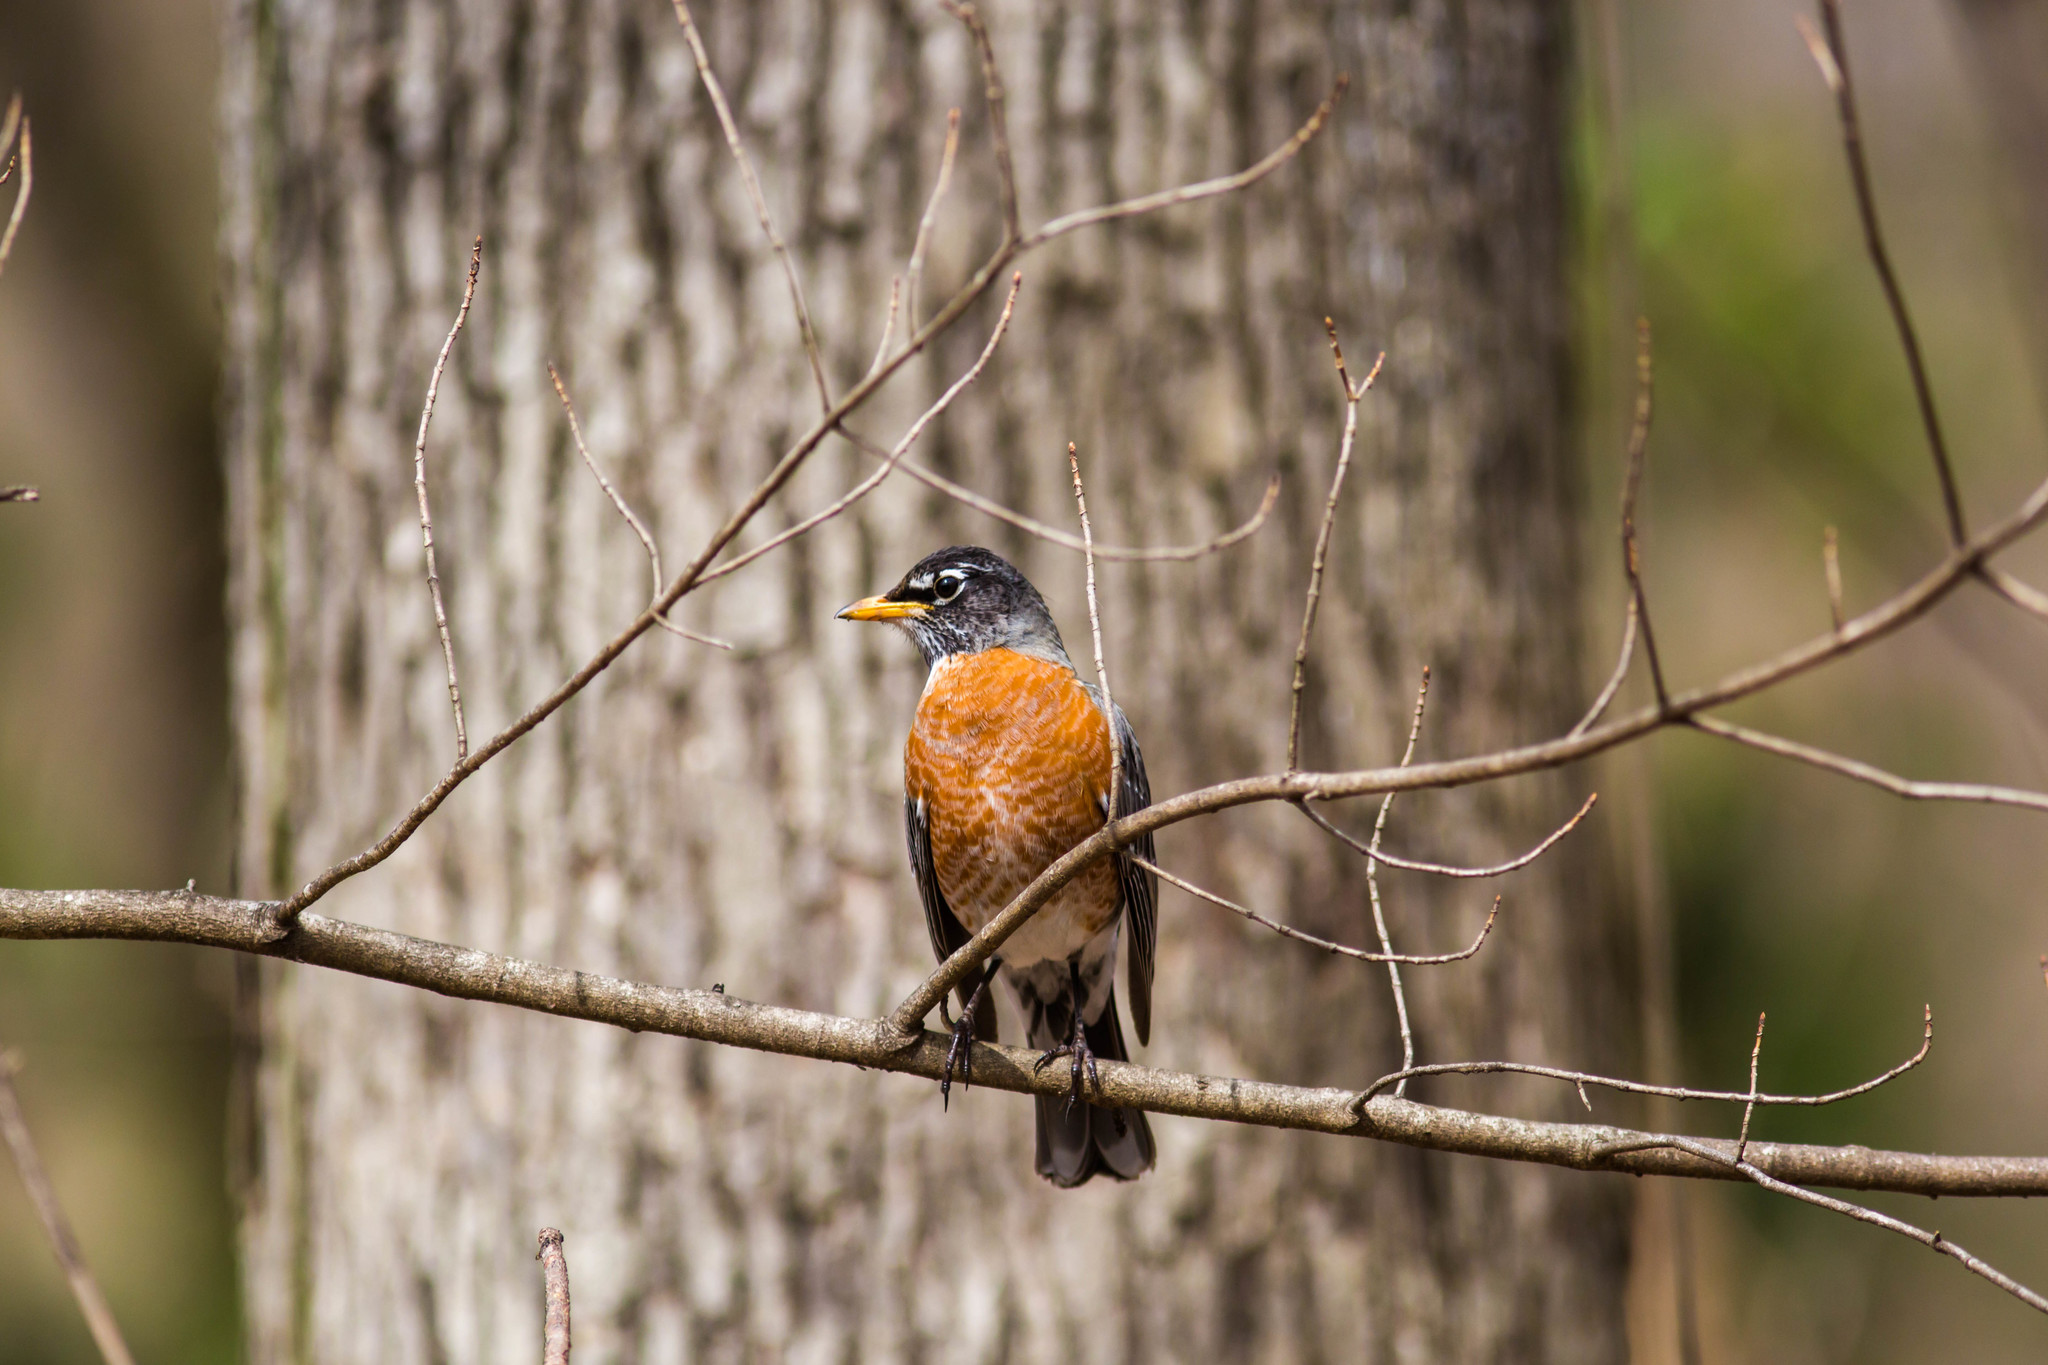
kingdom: Animalia
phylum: Chordata
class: Aves
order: Passeriformes
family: Turdidae
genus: Turdus
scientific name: Turdus migratorius
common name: American robin
